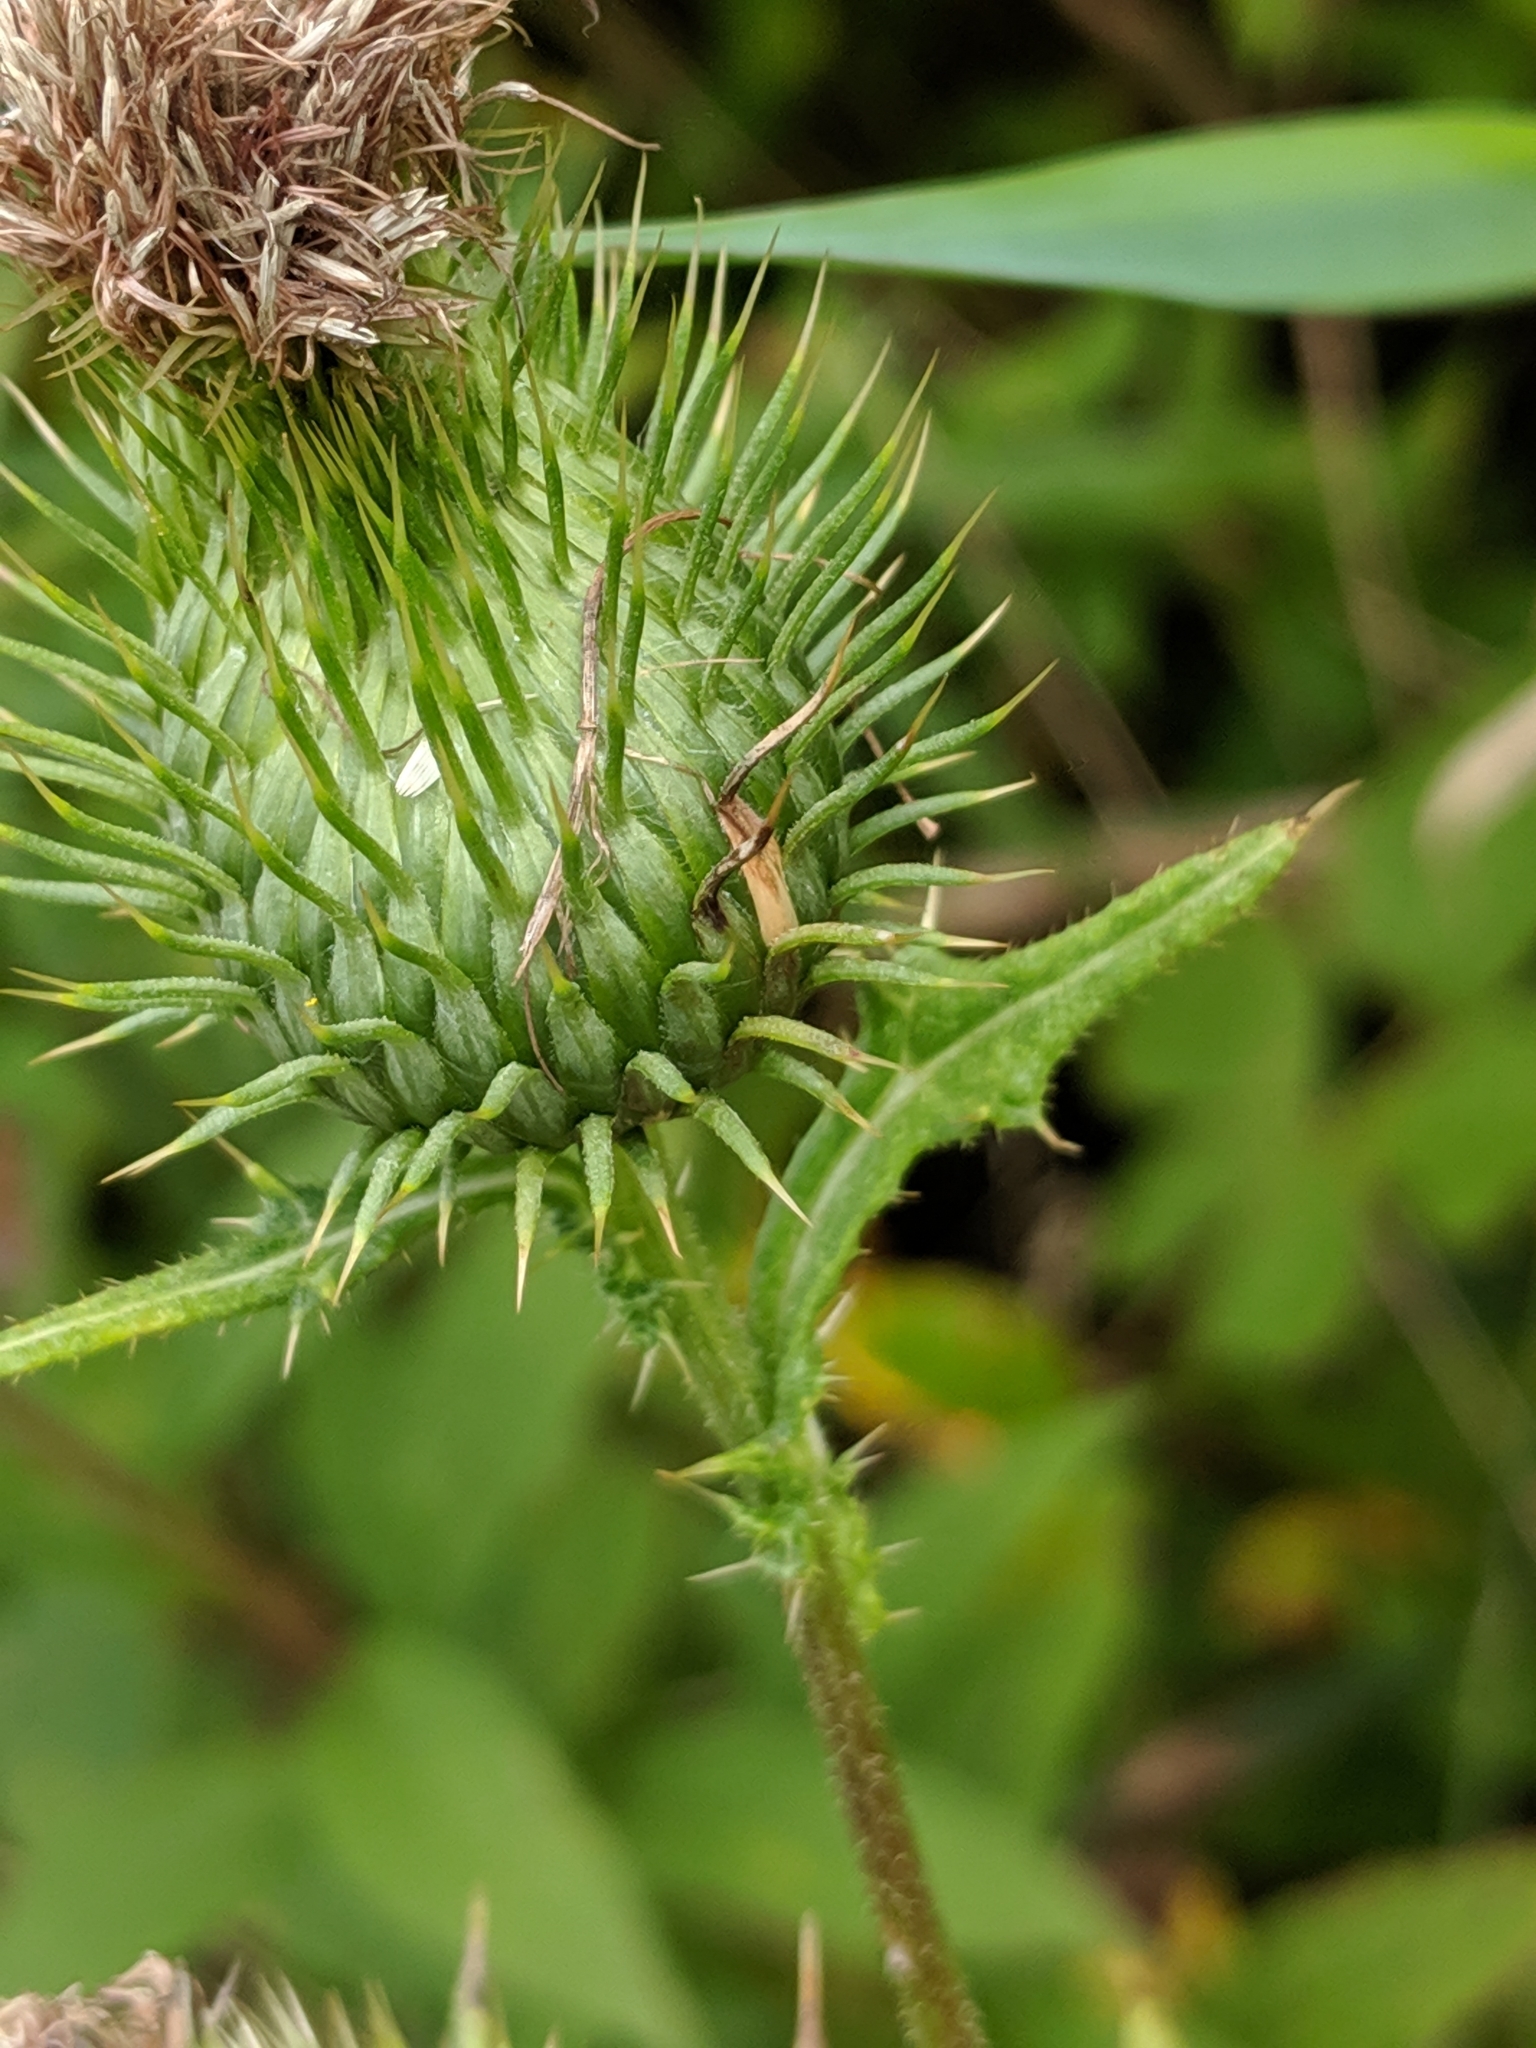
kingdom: Plantae
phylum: Tracheophyta
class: Magnoliopsida
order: Asterales
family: Asteraceae
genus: Cirsium
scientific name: Cirsium vulgare
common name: Bull thistle
